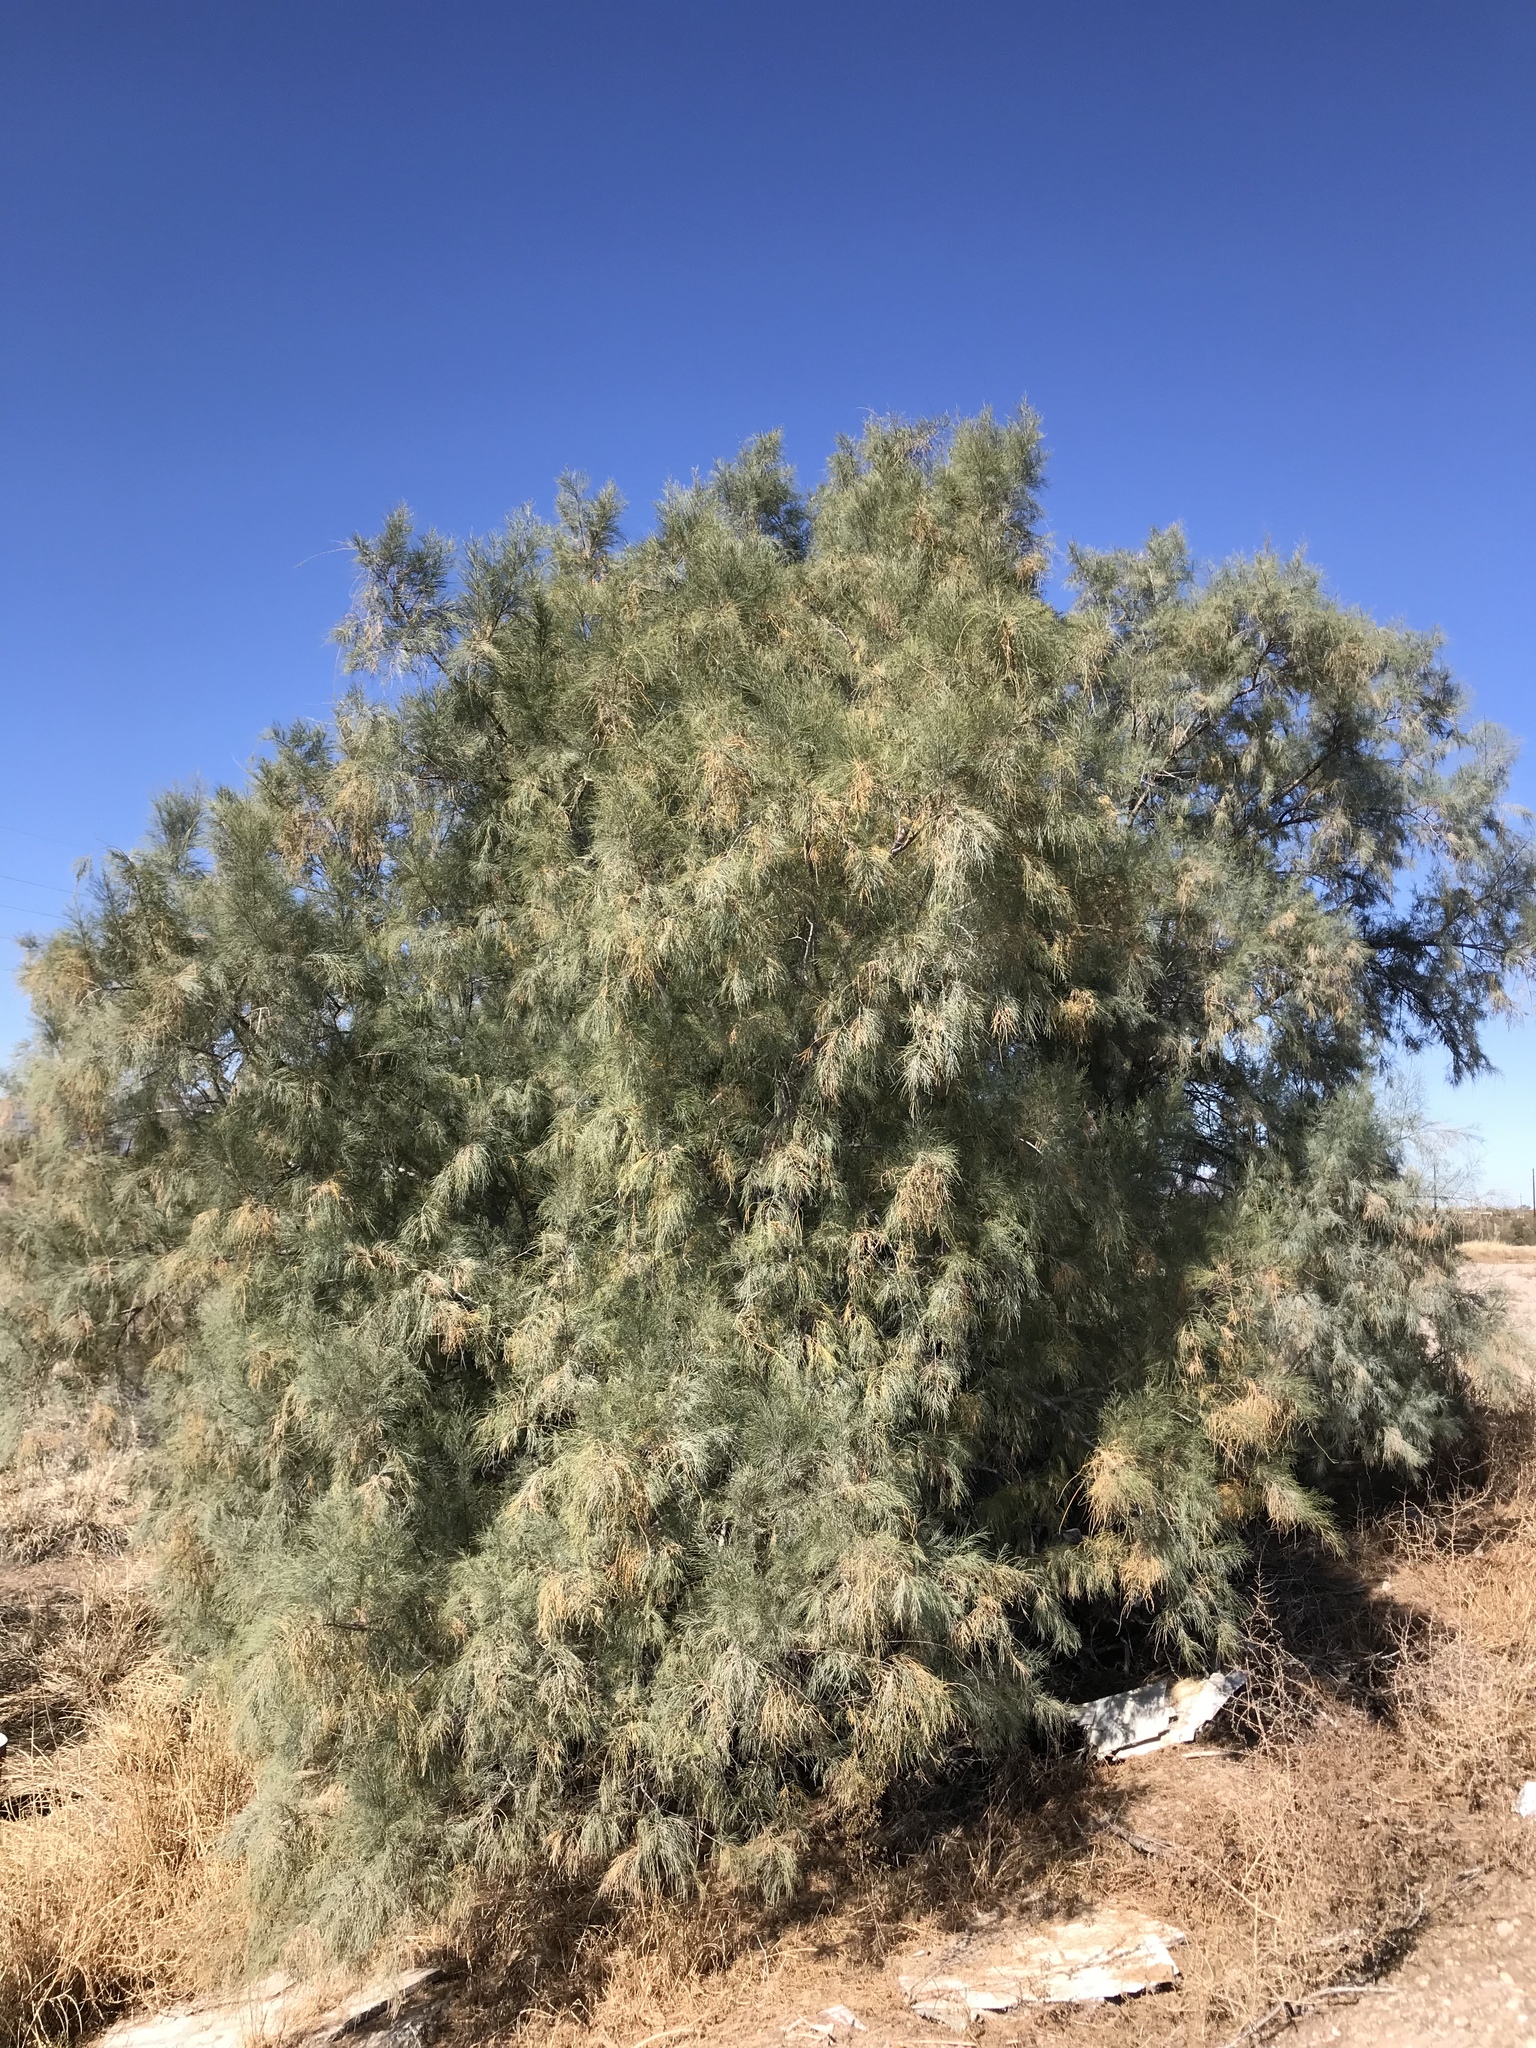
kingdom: Plantae
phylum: Tracheophyta
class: Magnoliopsida
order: Caryophyllales
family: Tamaricaceae
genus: Tamarix
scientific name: Tamarix aphylla
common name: Athel tamarisk
